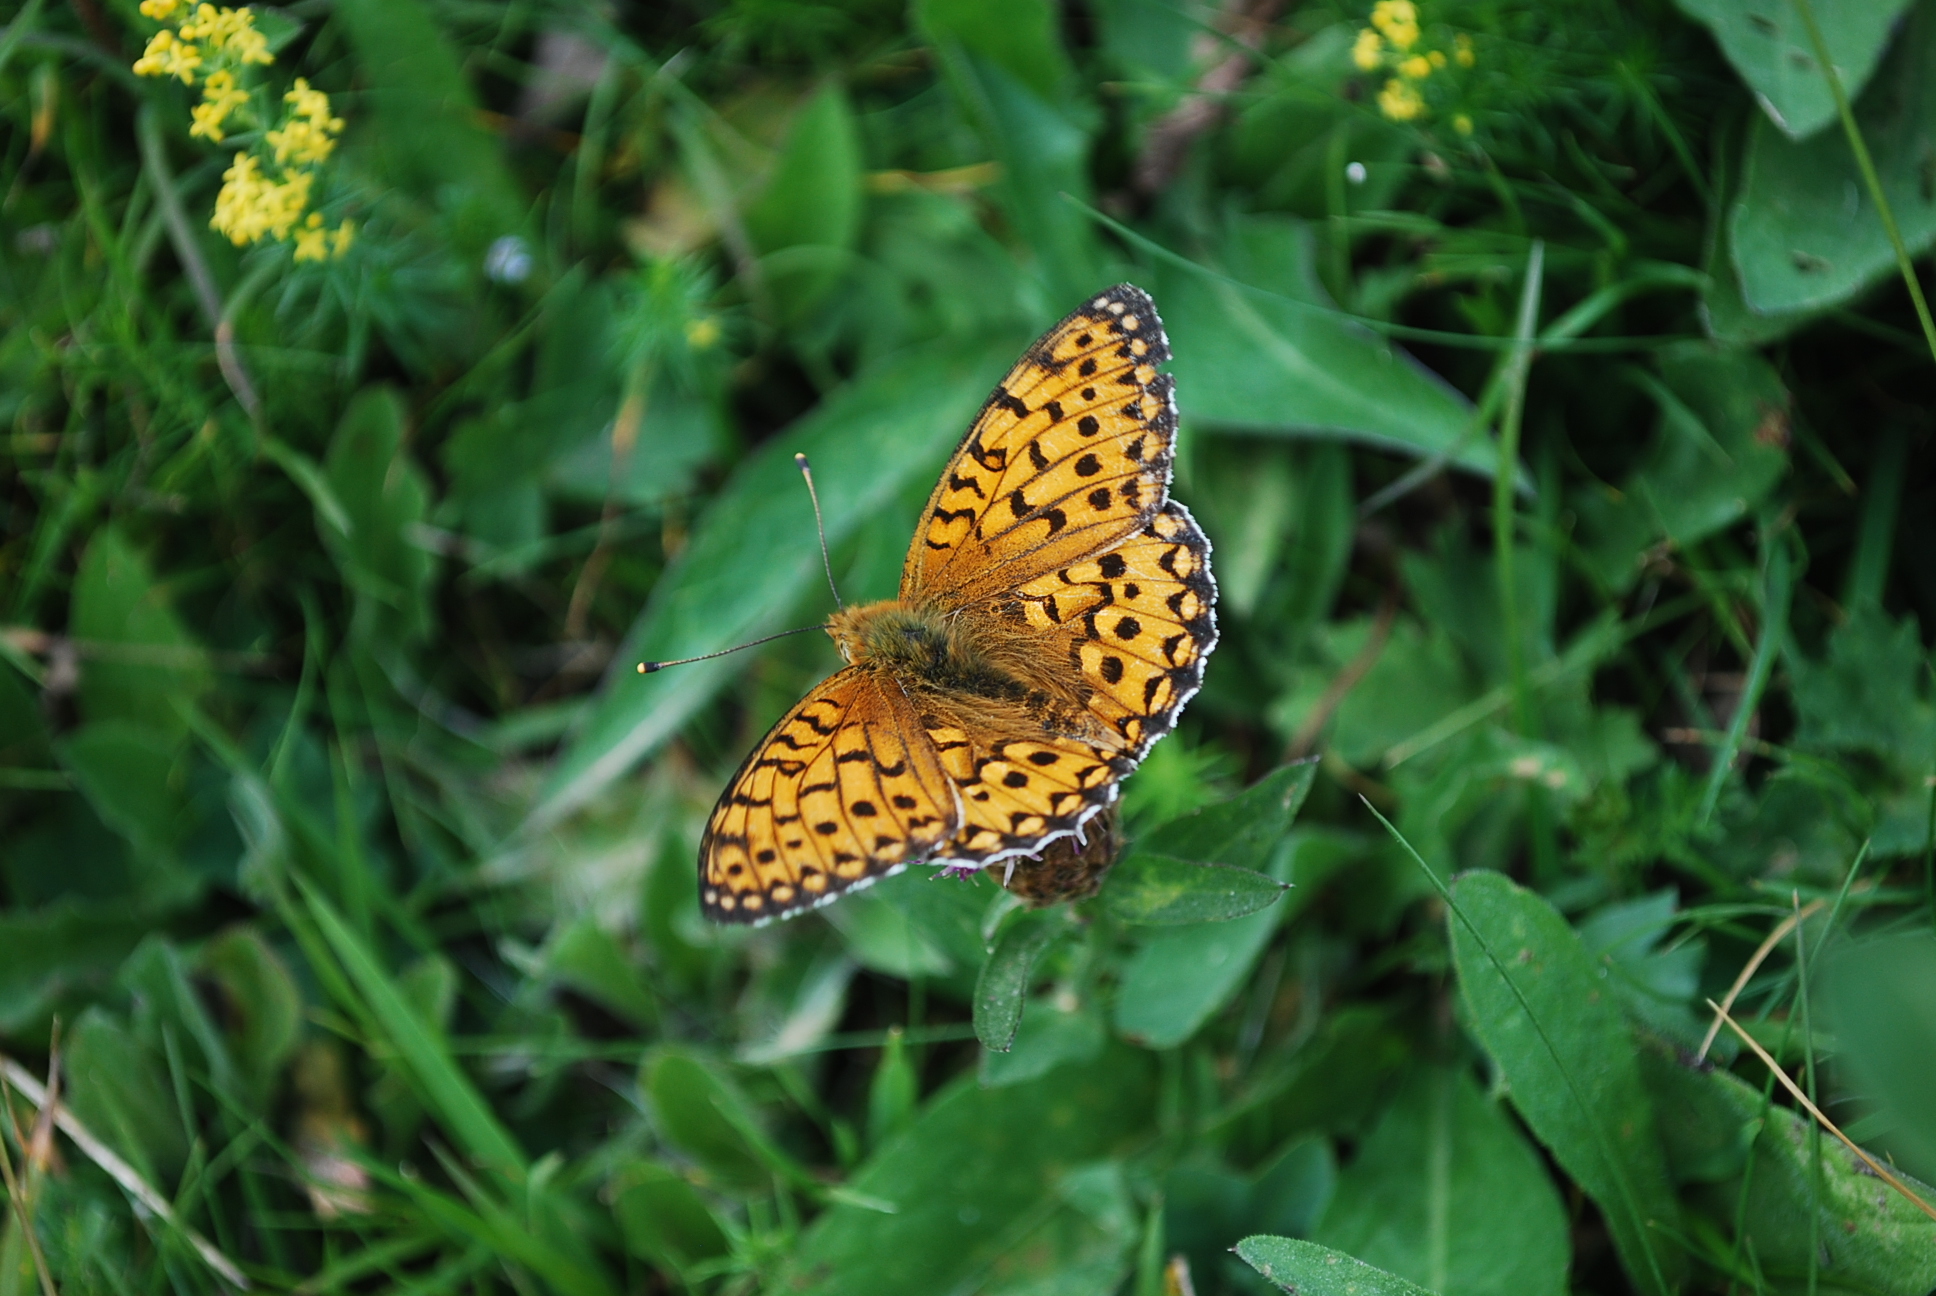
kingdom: Animalia
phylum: Arthropoda
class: Insecta
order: Lepidoptera
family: Nymphalidae
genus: Speyeria
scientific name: Speyeria aglaja
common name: Dark green fritillary
